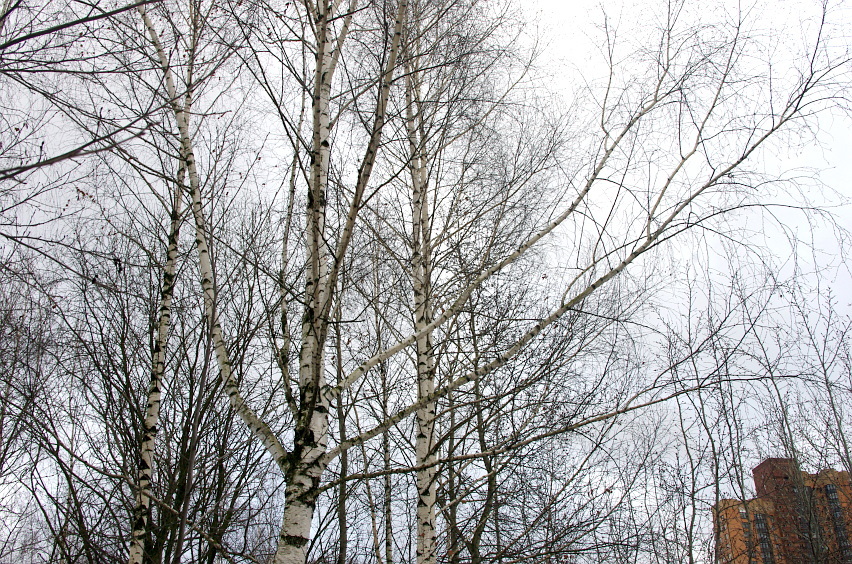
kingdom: Plantae
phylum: Tracheophyta
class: Magnoliopsida
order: Fagales
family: Betulaceae
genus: Betula
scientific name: Betula pendula
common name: Silver birch
